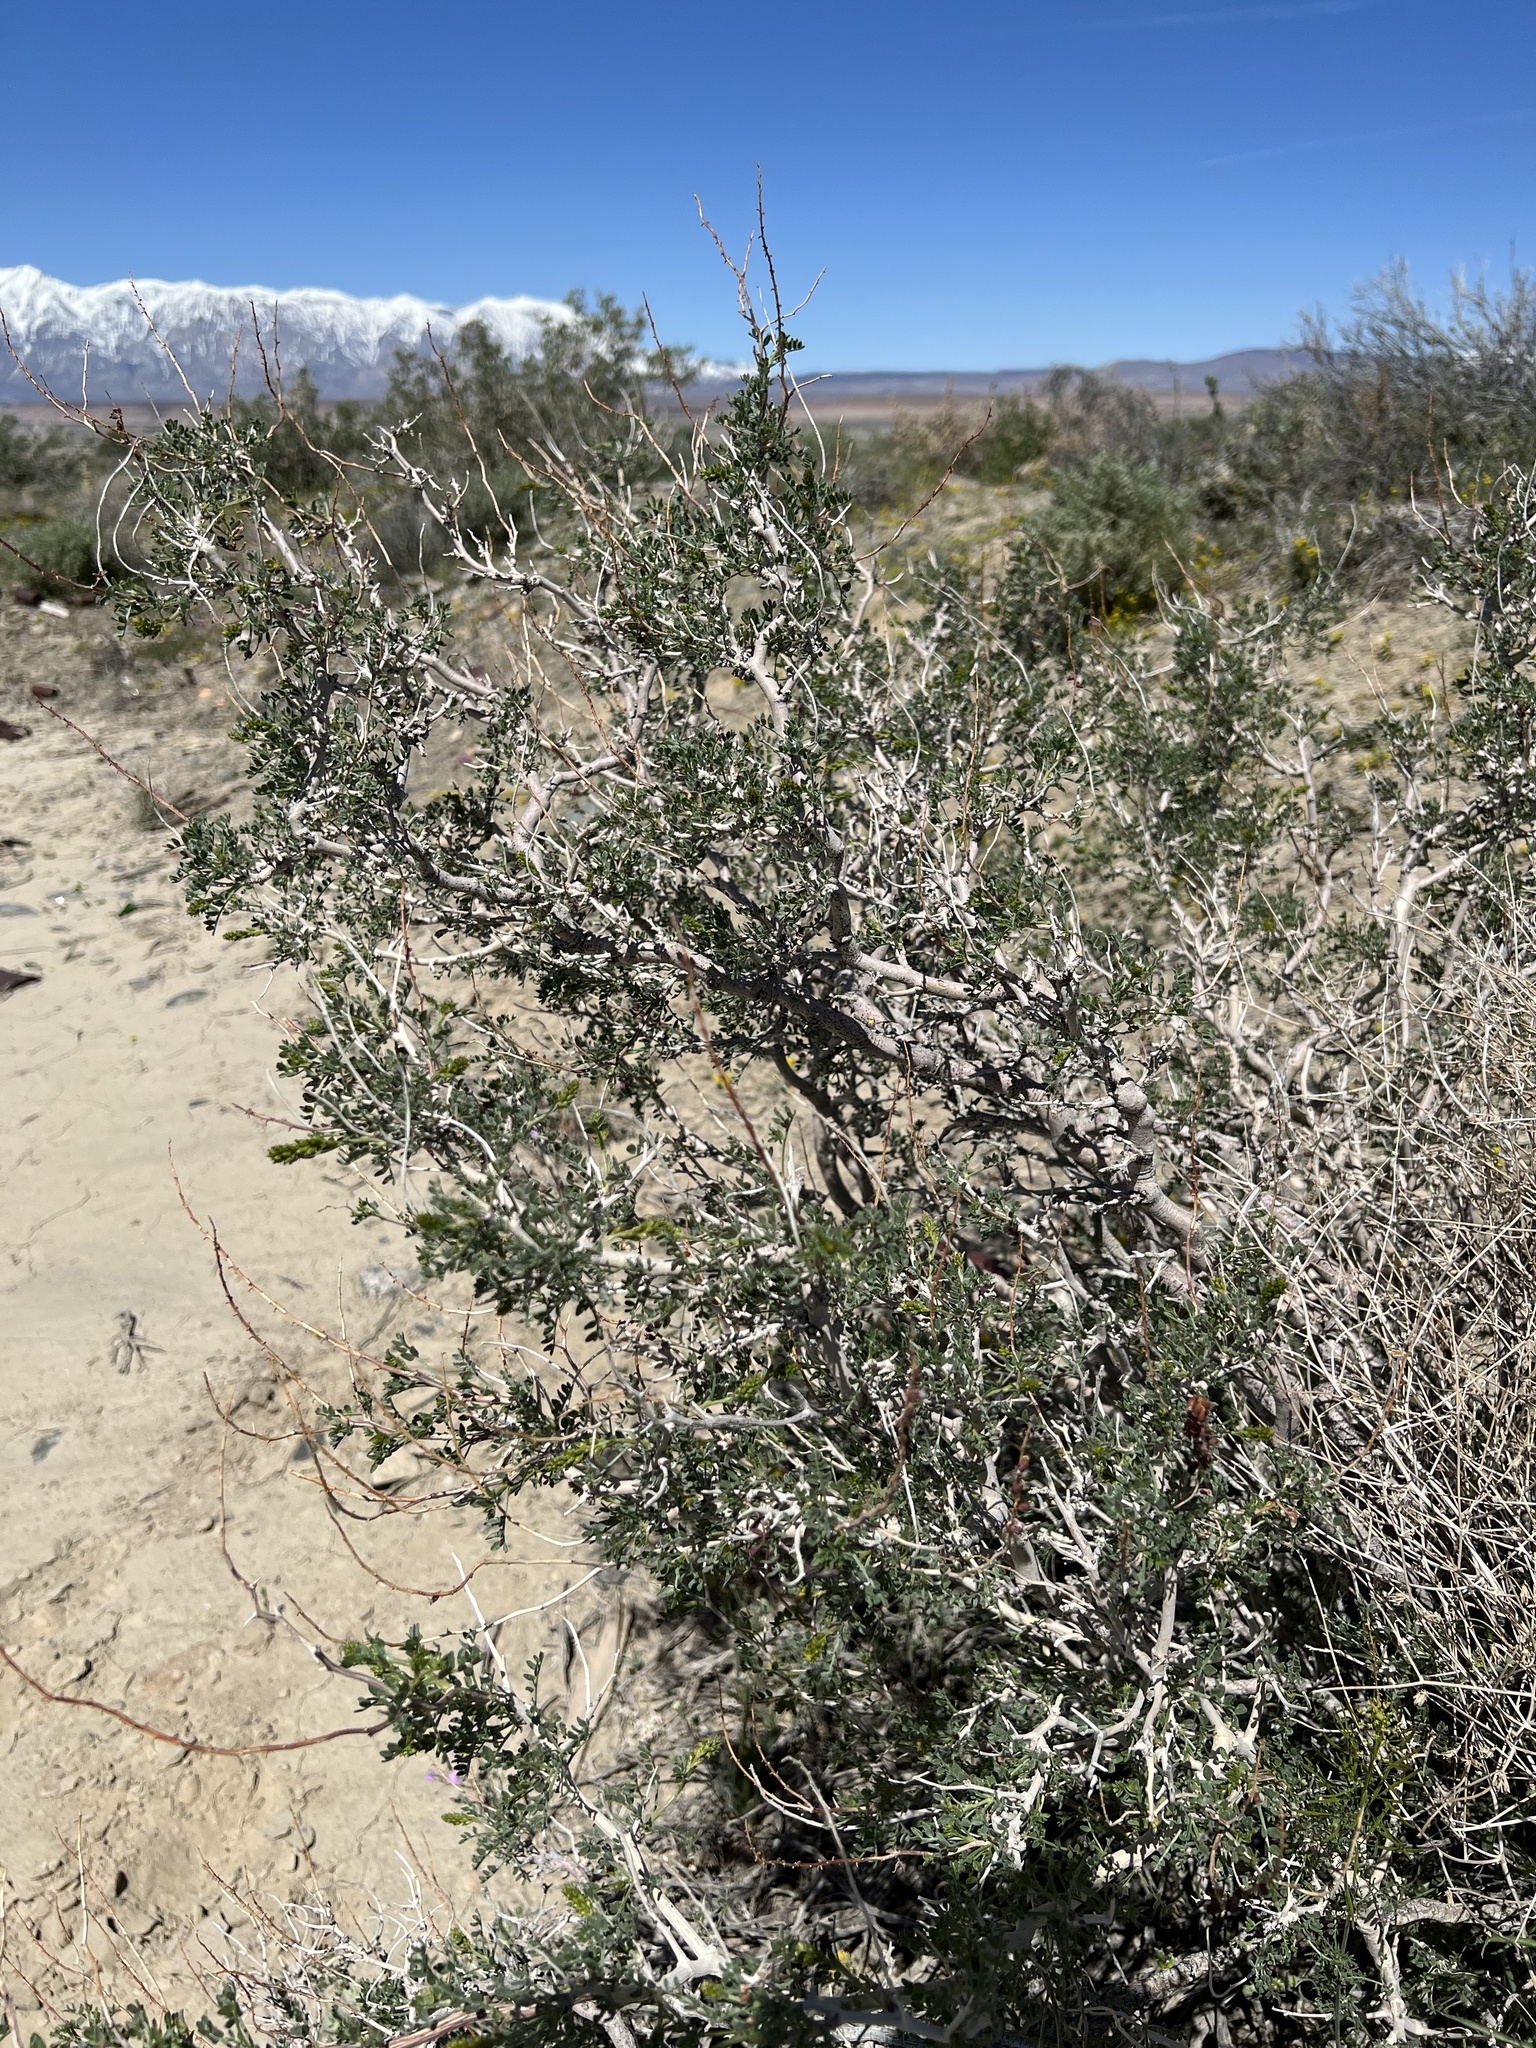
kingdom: Plantae
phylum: Tracheophyta
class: Magnoliopsida
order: Fabales
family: Fabaceae
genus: Psorothamnus
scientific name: Psorothamnus arborescens
